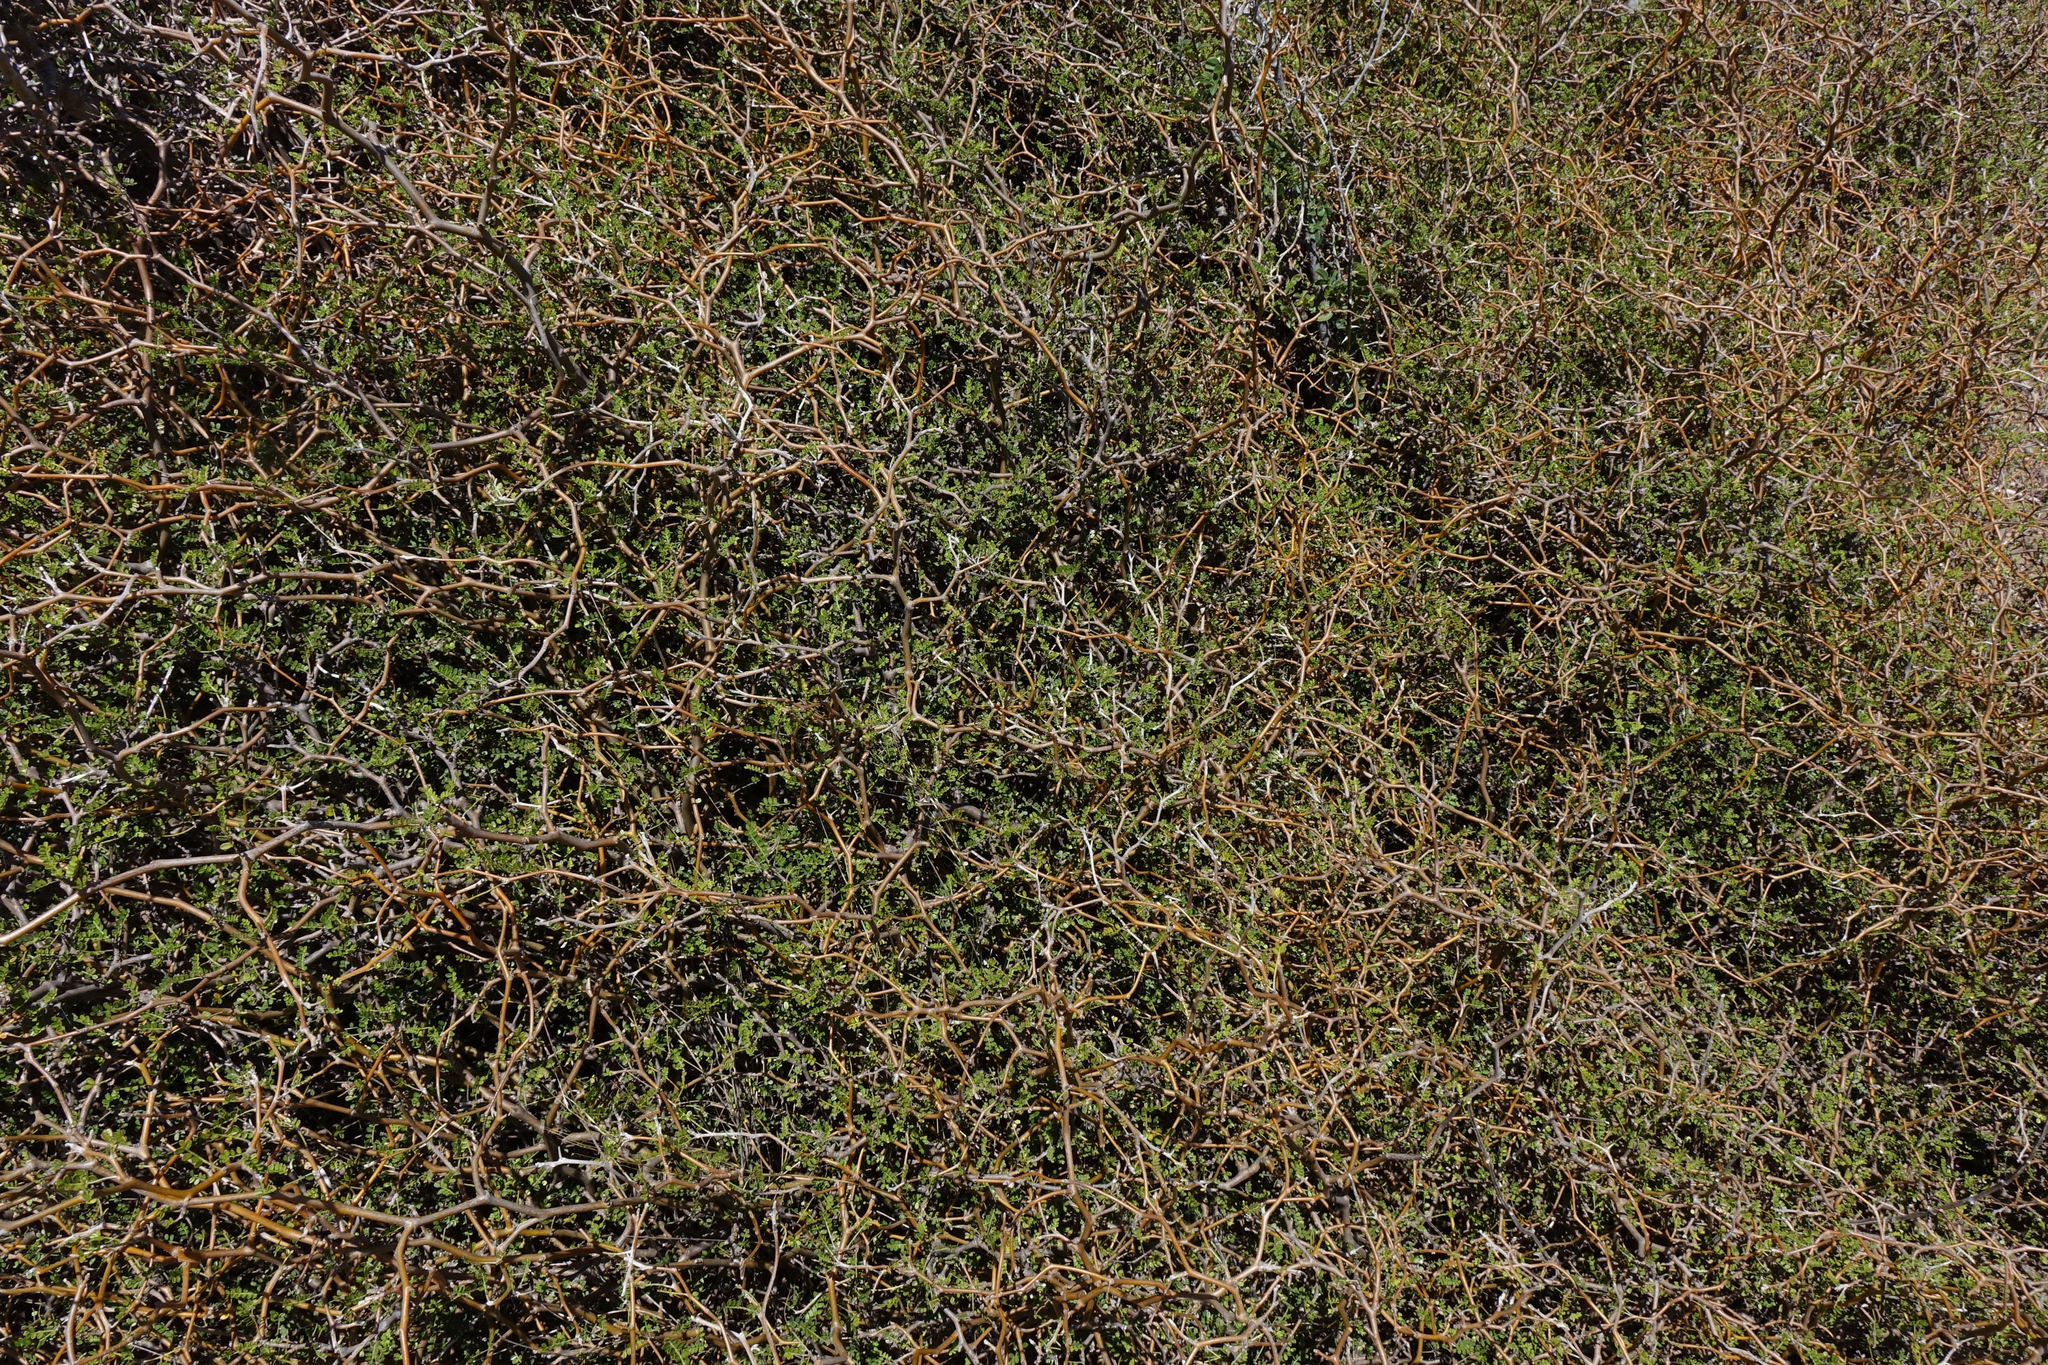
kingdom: Plantae
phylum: Tracheophyta
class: Magnoliopsida
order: Fabales
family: Fabaceae
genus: Sophora
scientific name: Sophora prostrata
